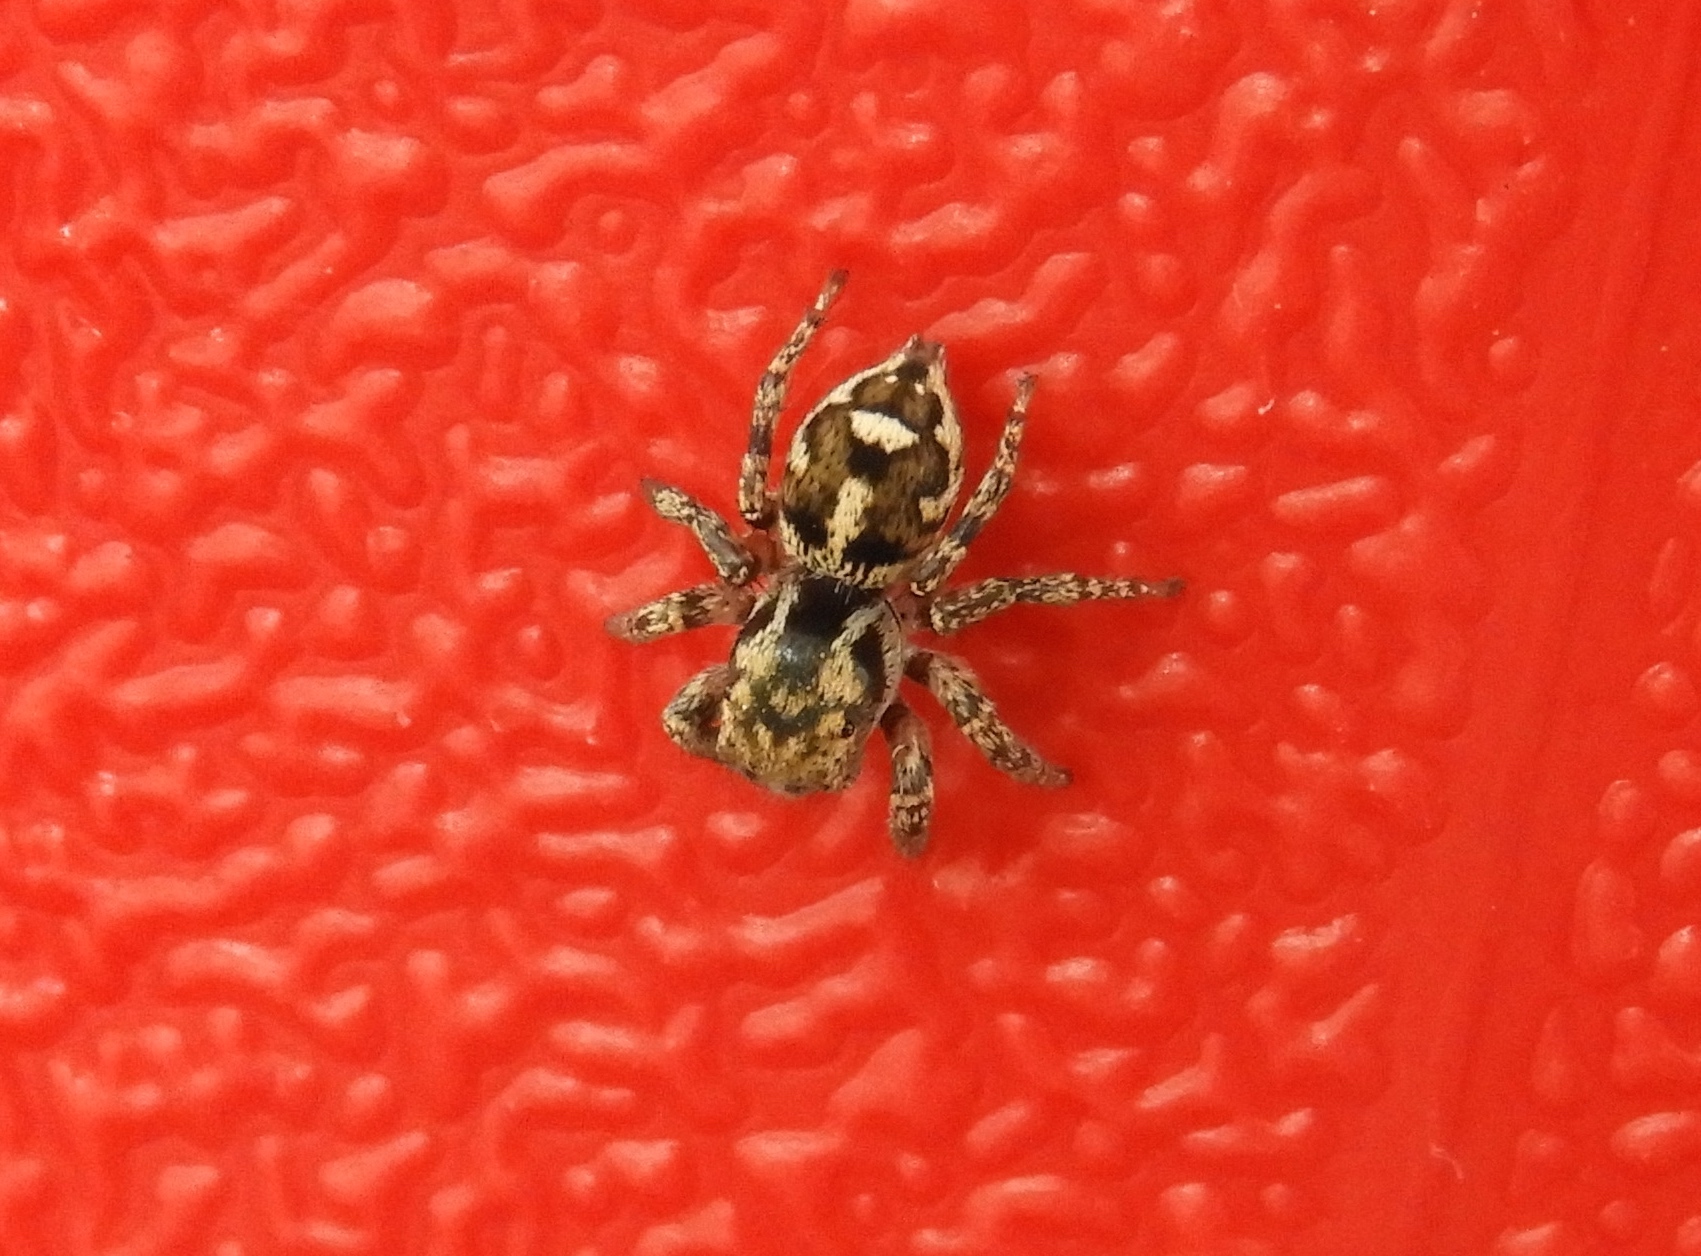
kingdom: Animalia
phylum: Arthropoda
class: Arachnida
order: Araneae
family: Salticidae
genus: Harmochirina
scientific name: Harmochirina
